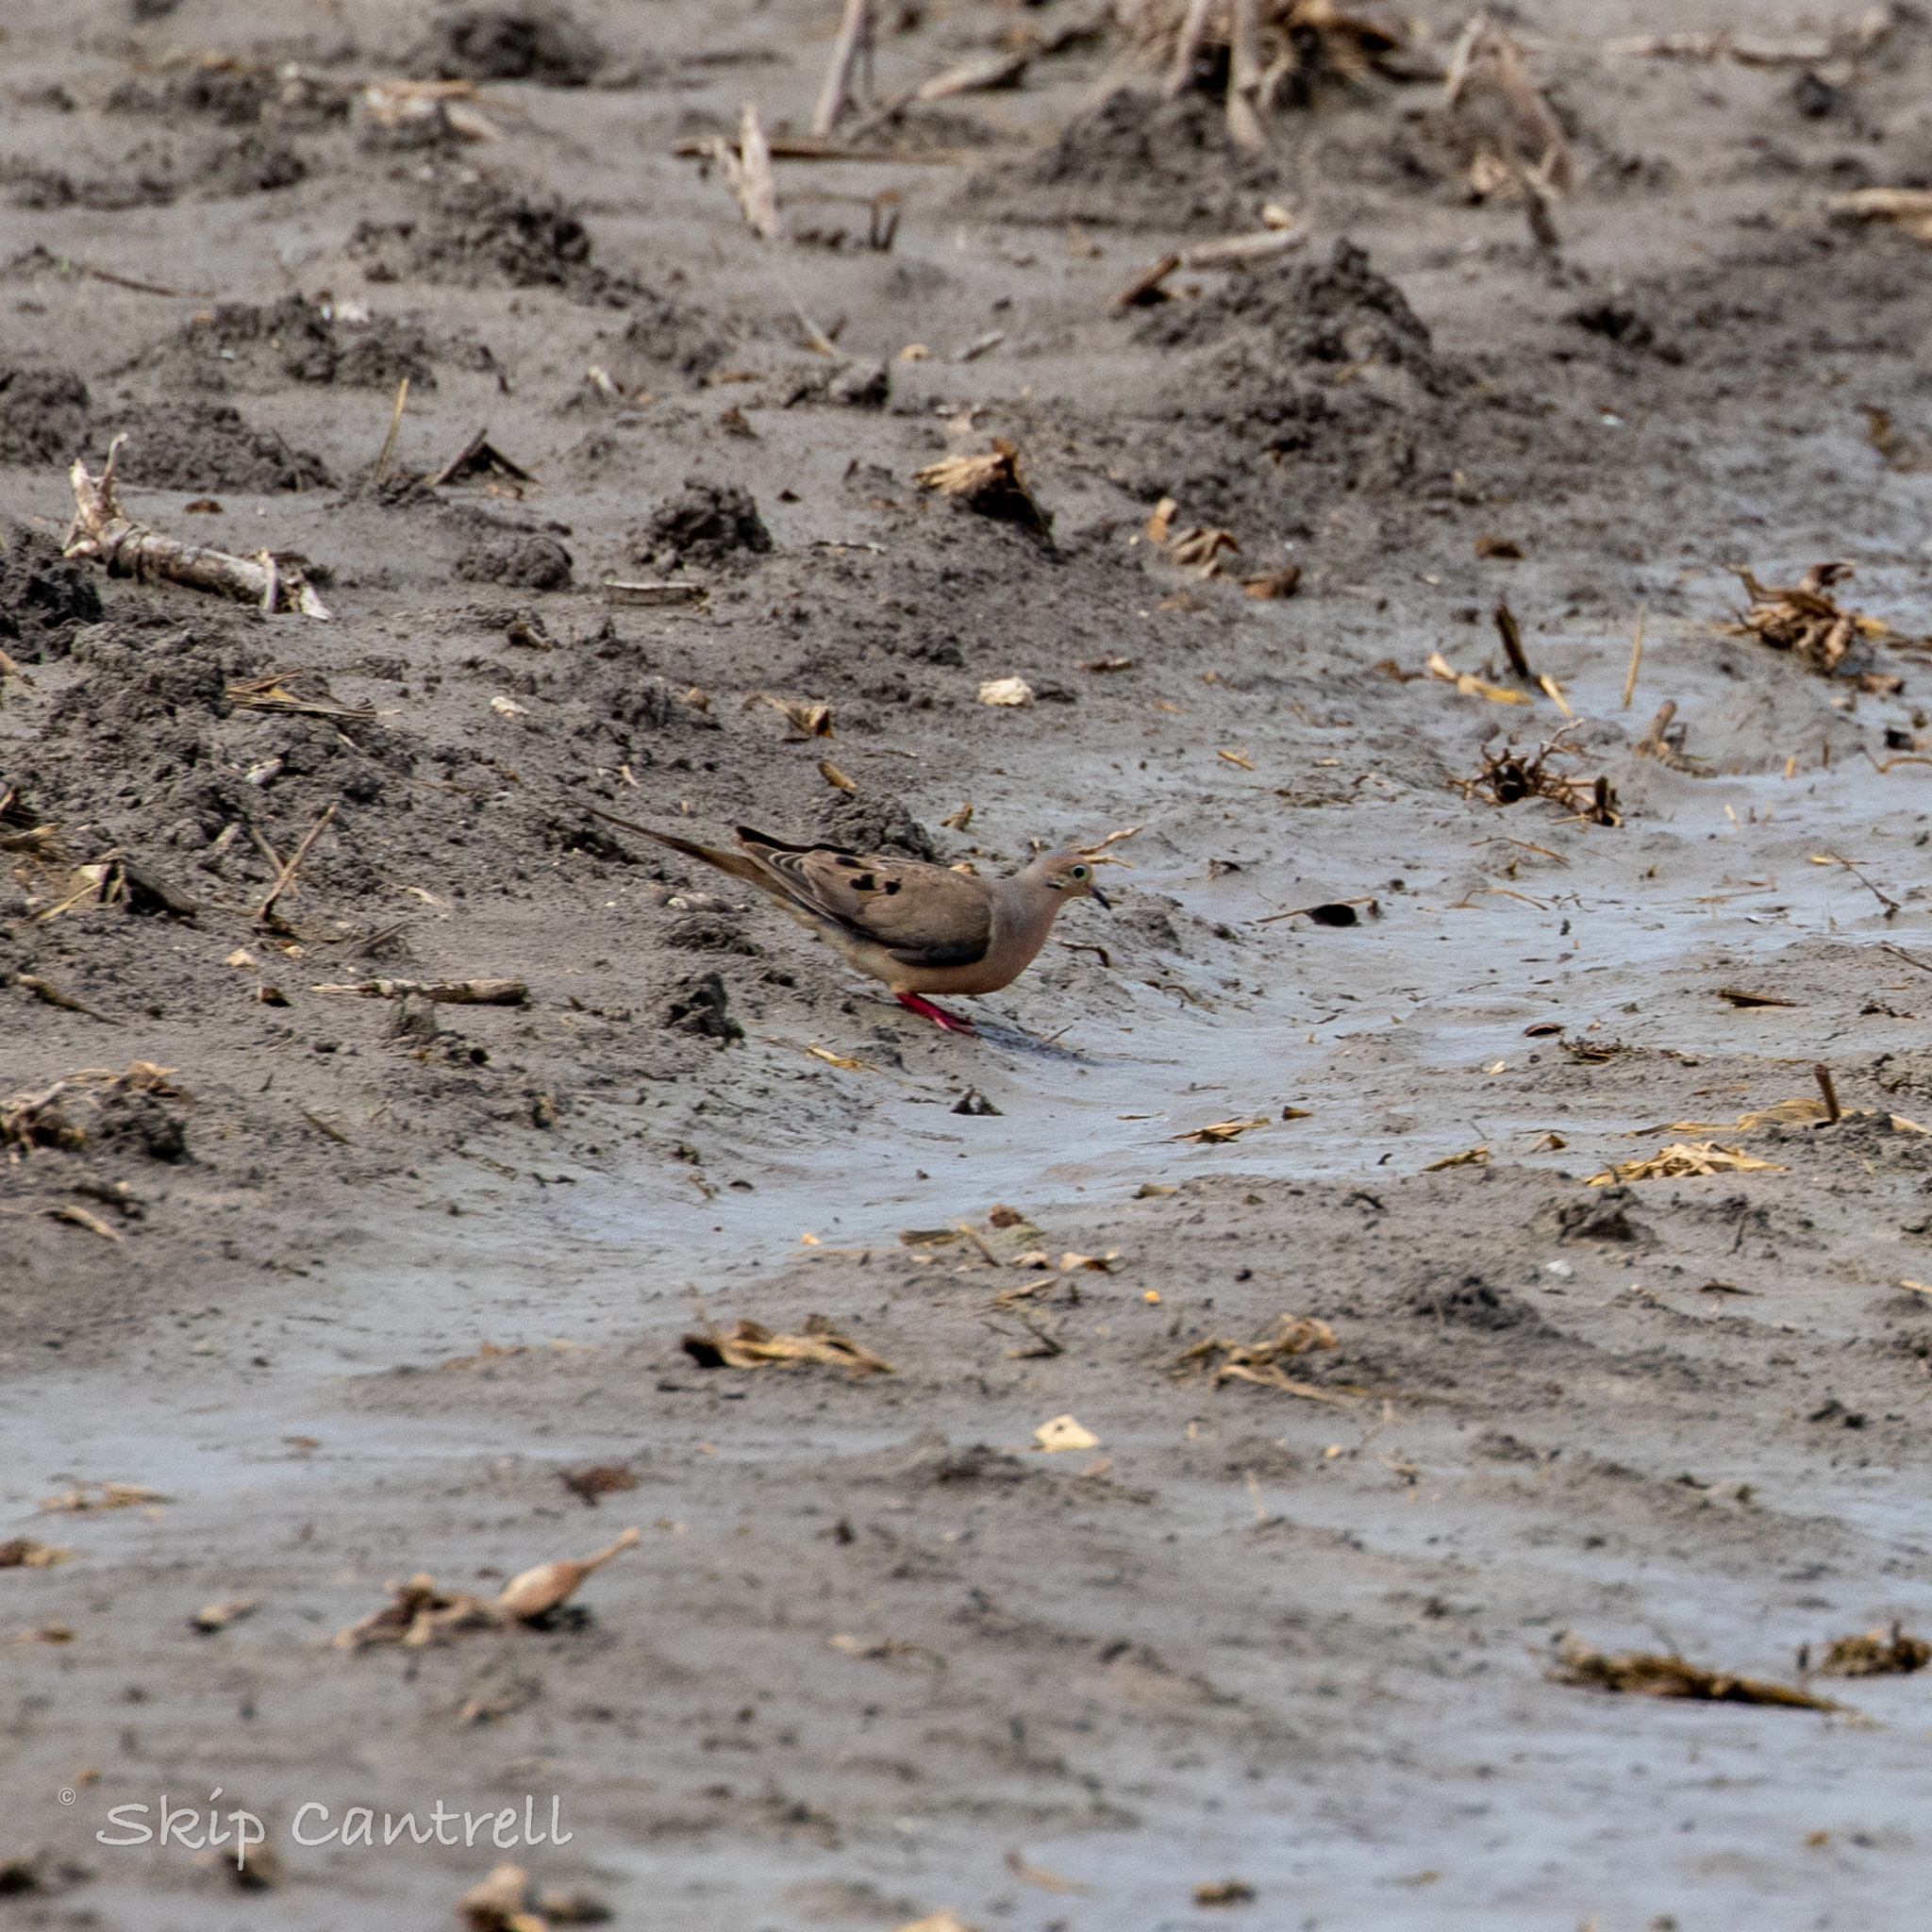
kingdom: Animalia
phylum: Chordata
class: Aves
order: Columbiformes
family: Columbidae
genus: Zenaida
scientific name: Zenaida macroura
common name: Mourning dove
